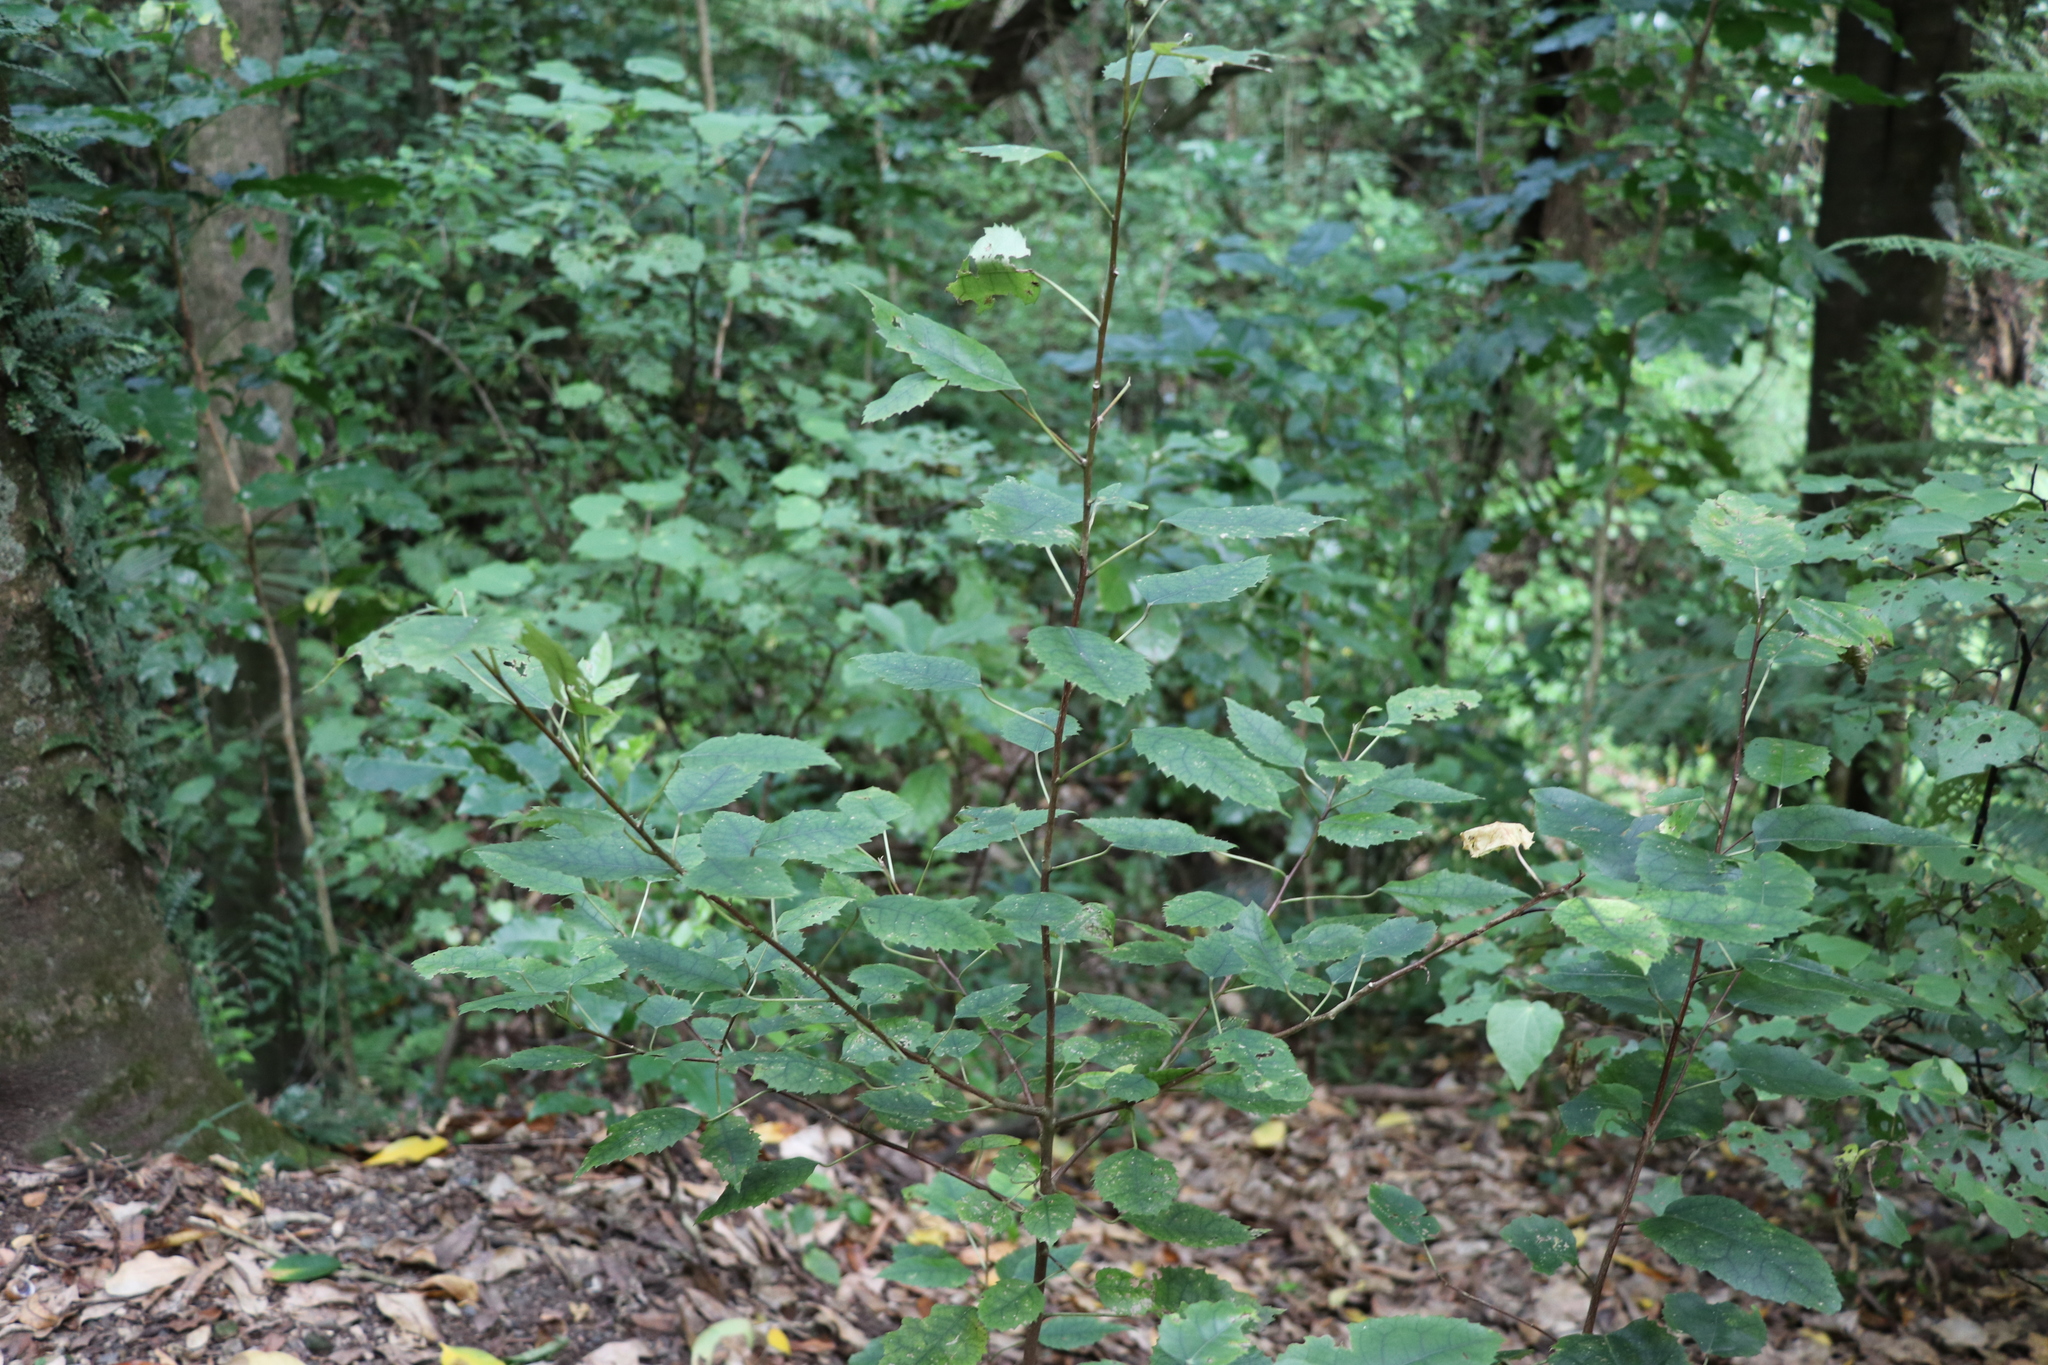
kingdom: Plantae
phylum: Tracheophyta
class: Magnoliopsida
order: Malvales
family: Malvaceae
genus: Hoheria
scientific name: Hoheria populnea
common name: Lacebark
